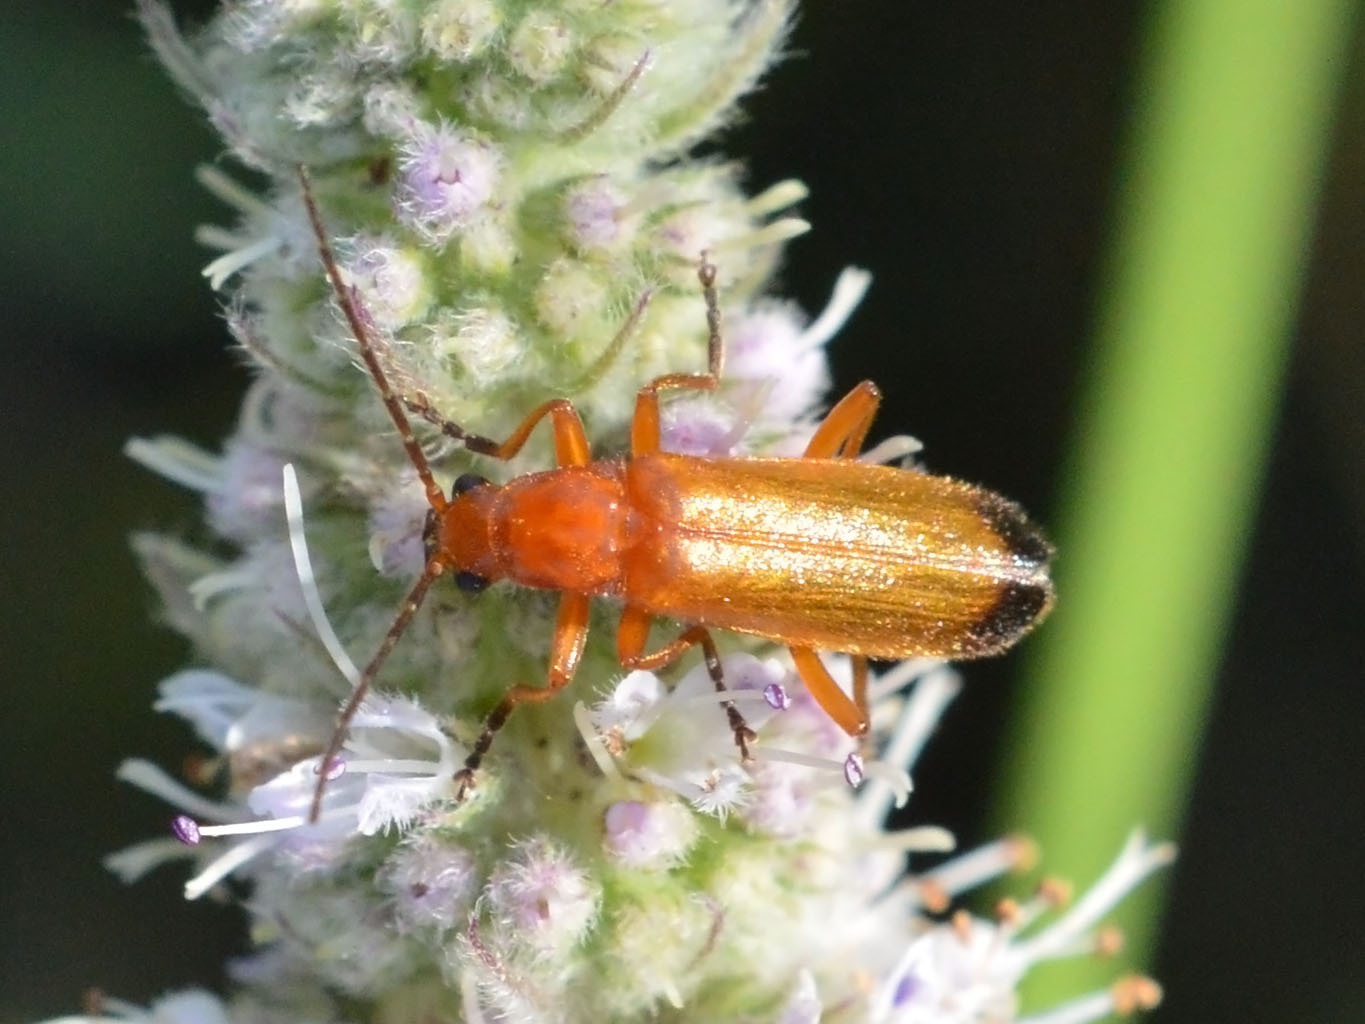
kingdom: Animalia
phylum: Arthropoda
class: Insecta
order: Coleoptera
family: Cantharidae
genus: Rhagonycha
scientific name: Rhagonycha fulva
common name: Common red soldier beetle
